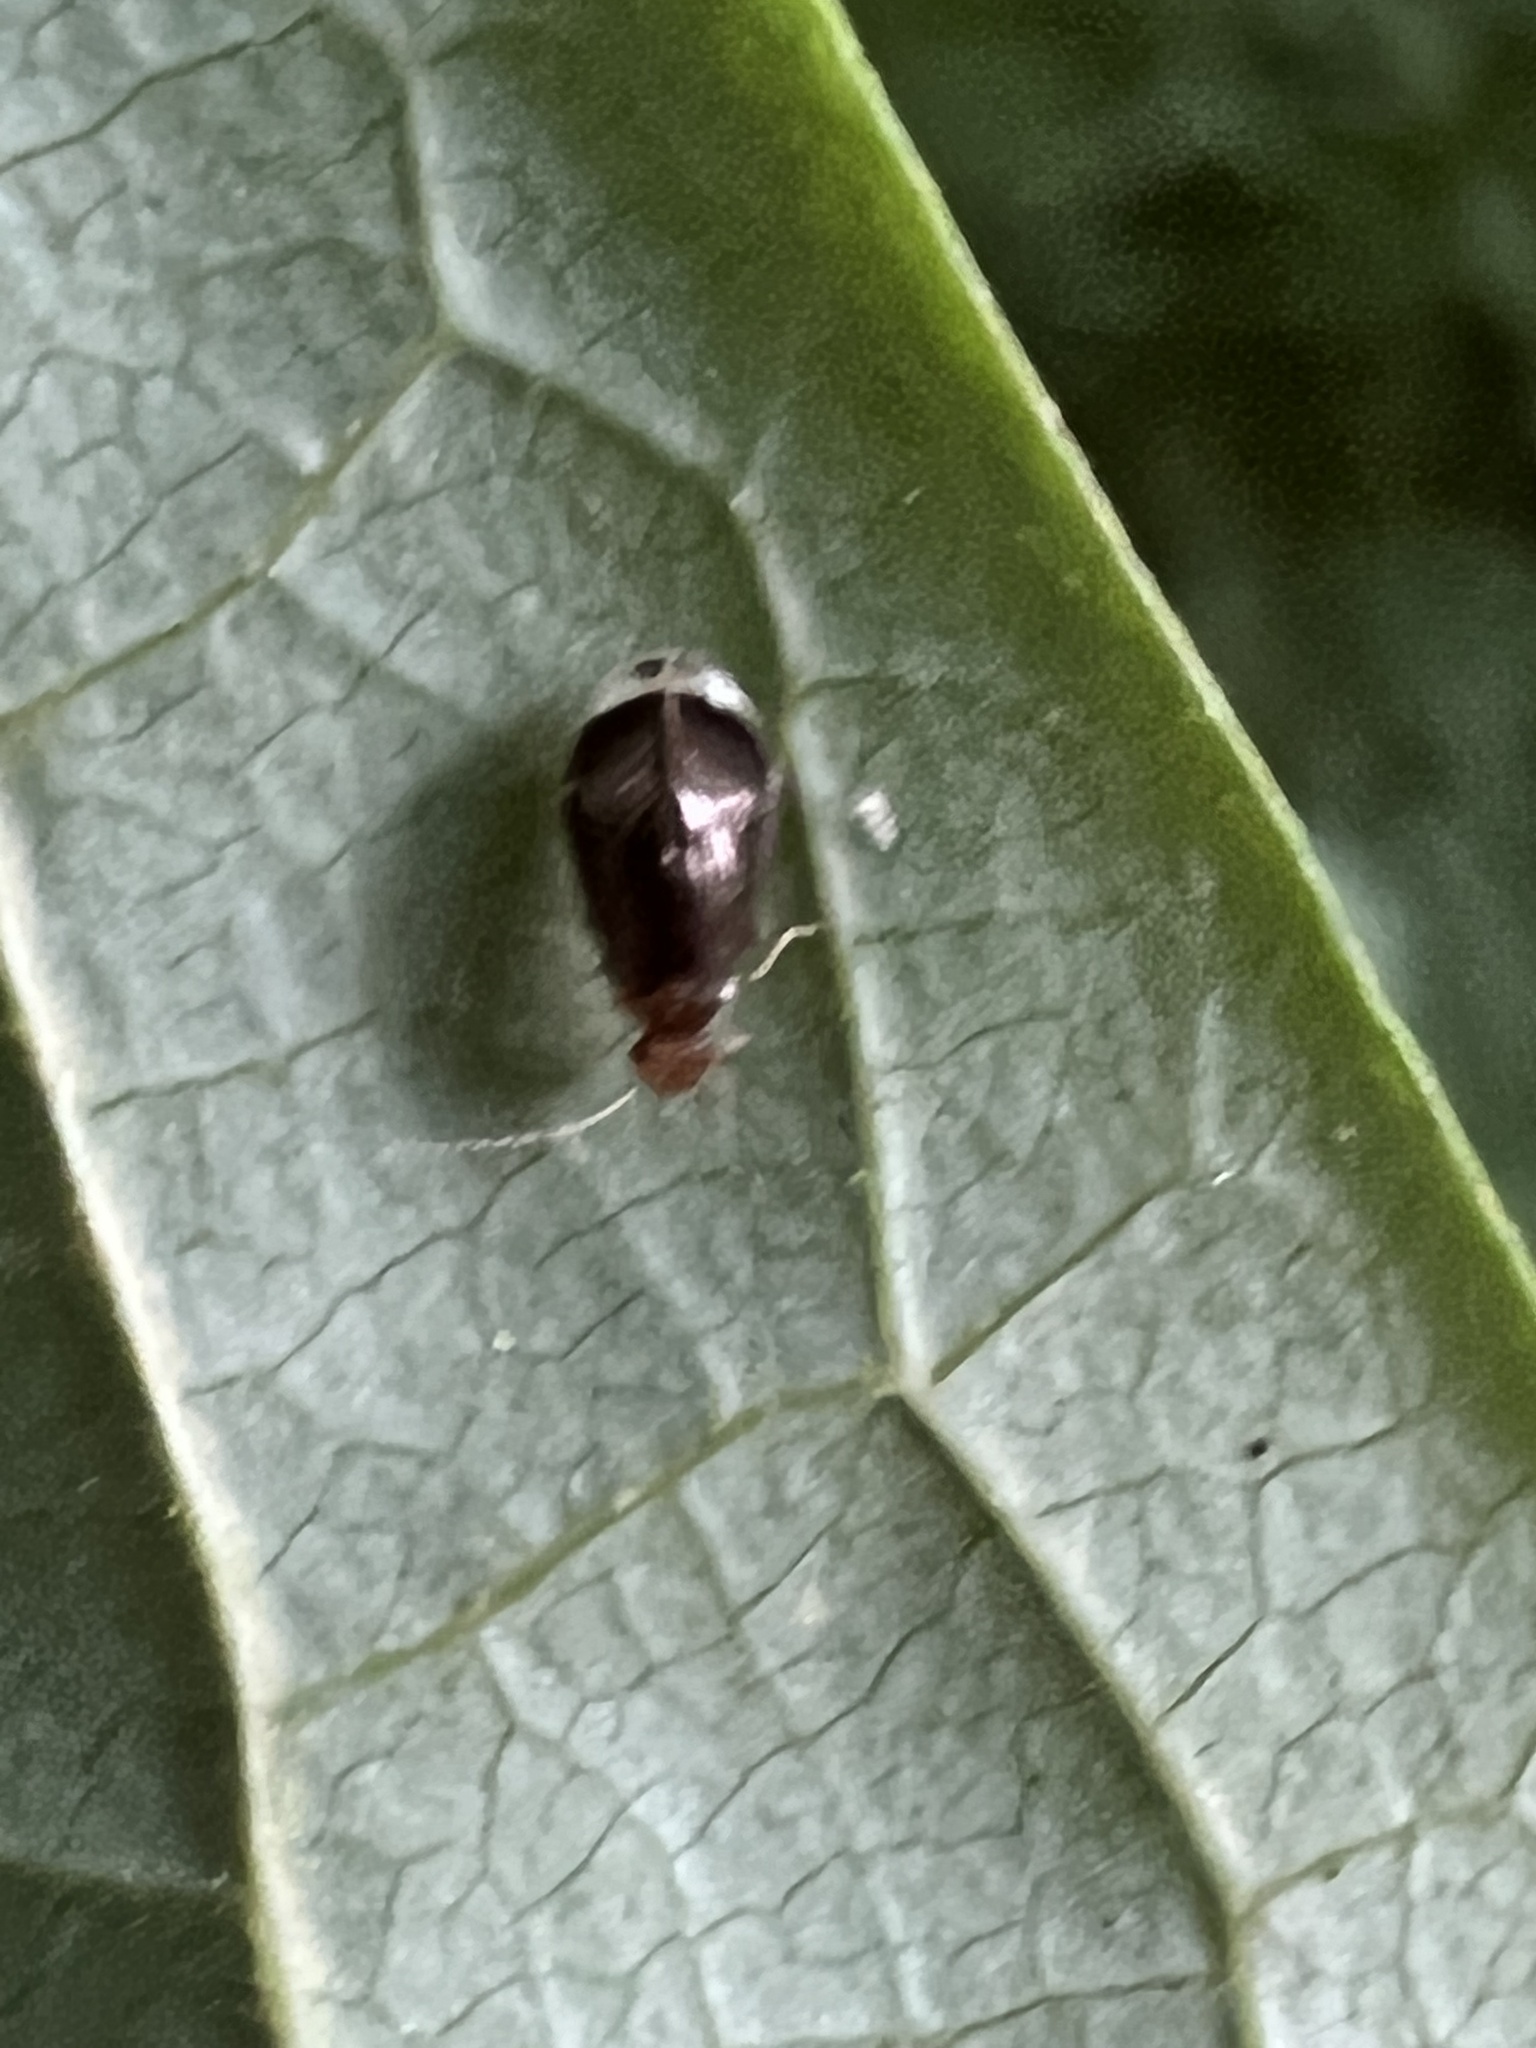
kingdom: Animalia
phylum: Arthropoda
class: Insecta
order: Psocodea
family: Amphipsocidae
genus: Polypsocus
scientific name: Polypsocus corruptus
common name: Corrupt barklouse
